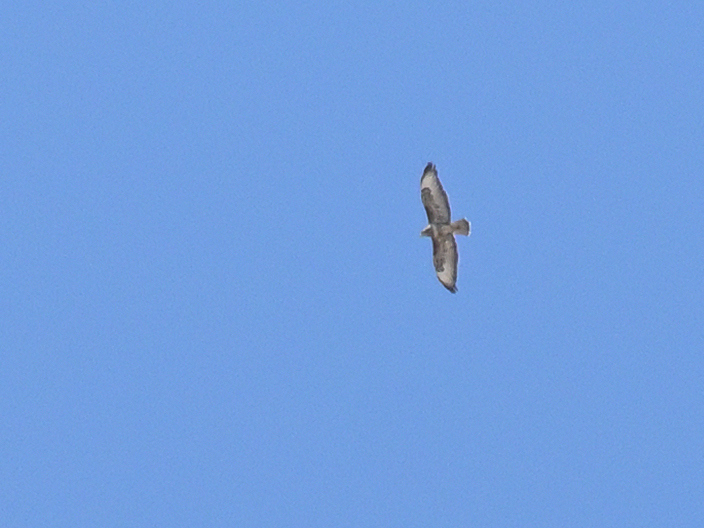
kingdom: Animalia
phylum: Chordata
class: Aves
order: Accipitriformes
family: Accipitridae
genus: Buteo
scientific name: Buteo buteo
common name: Common buzzard
